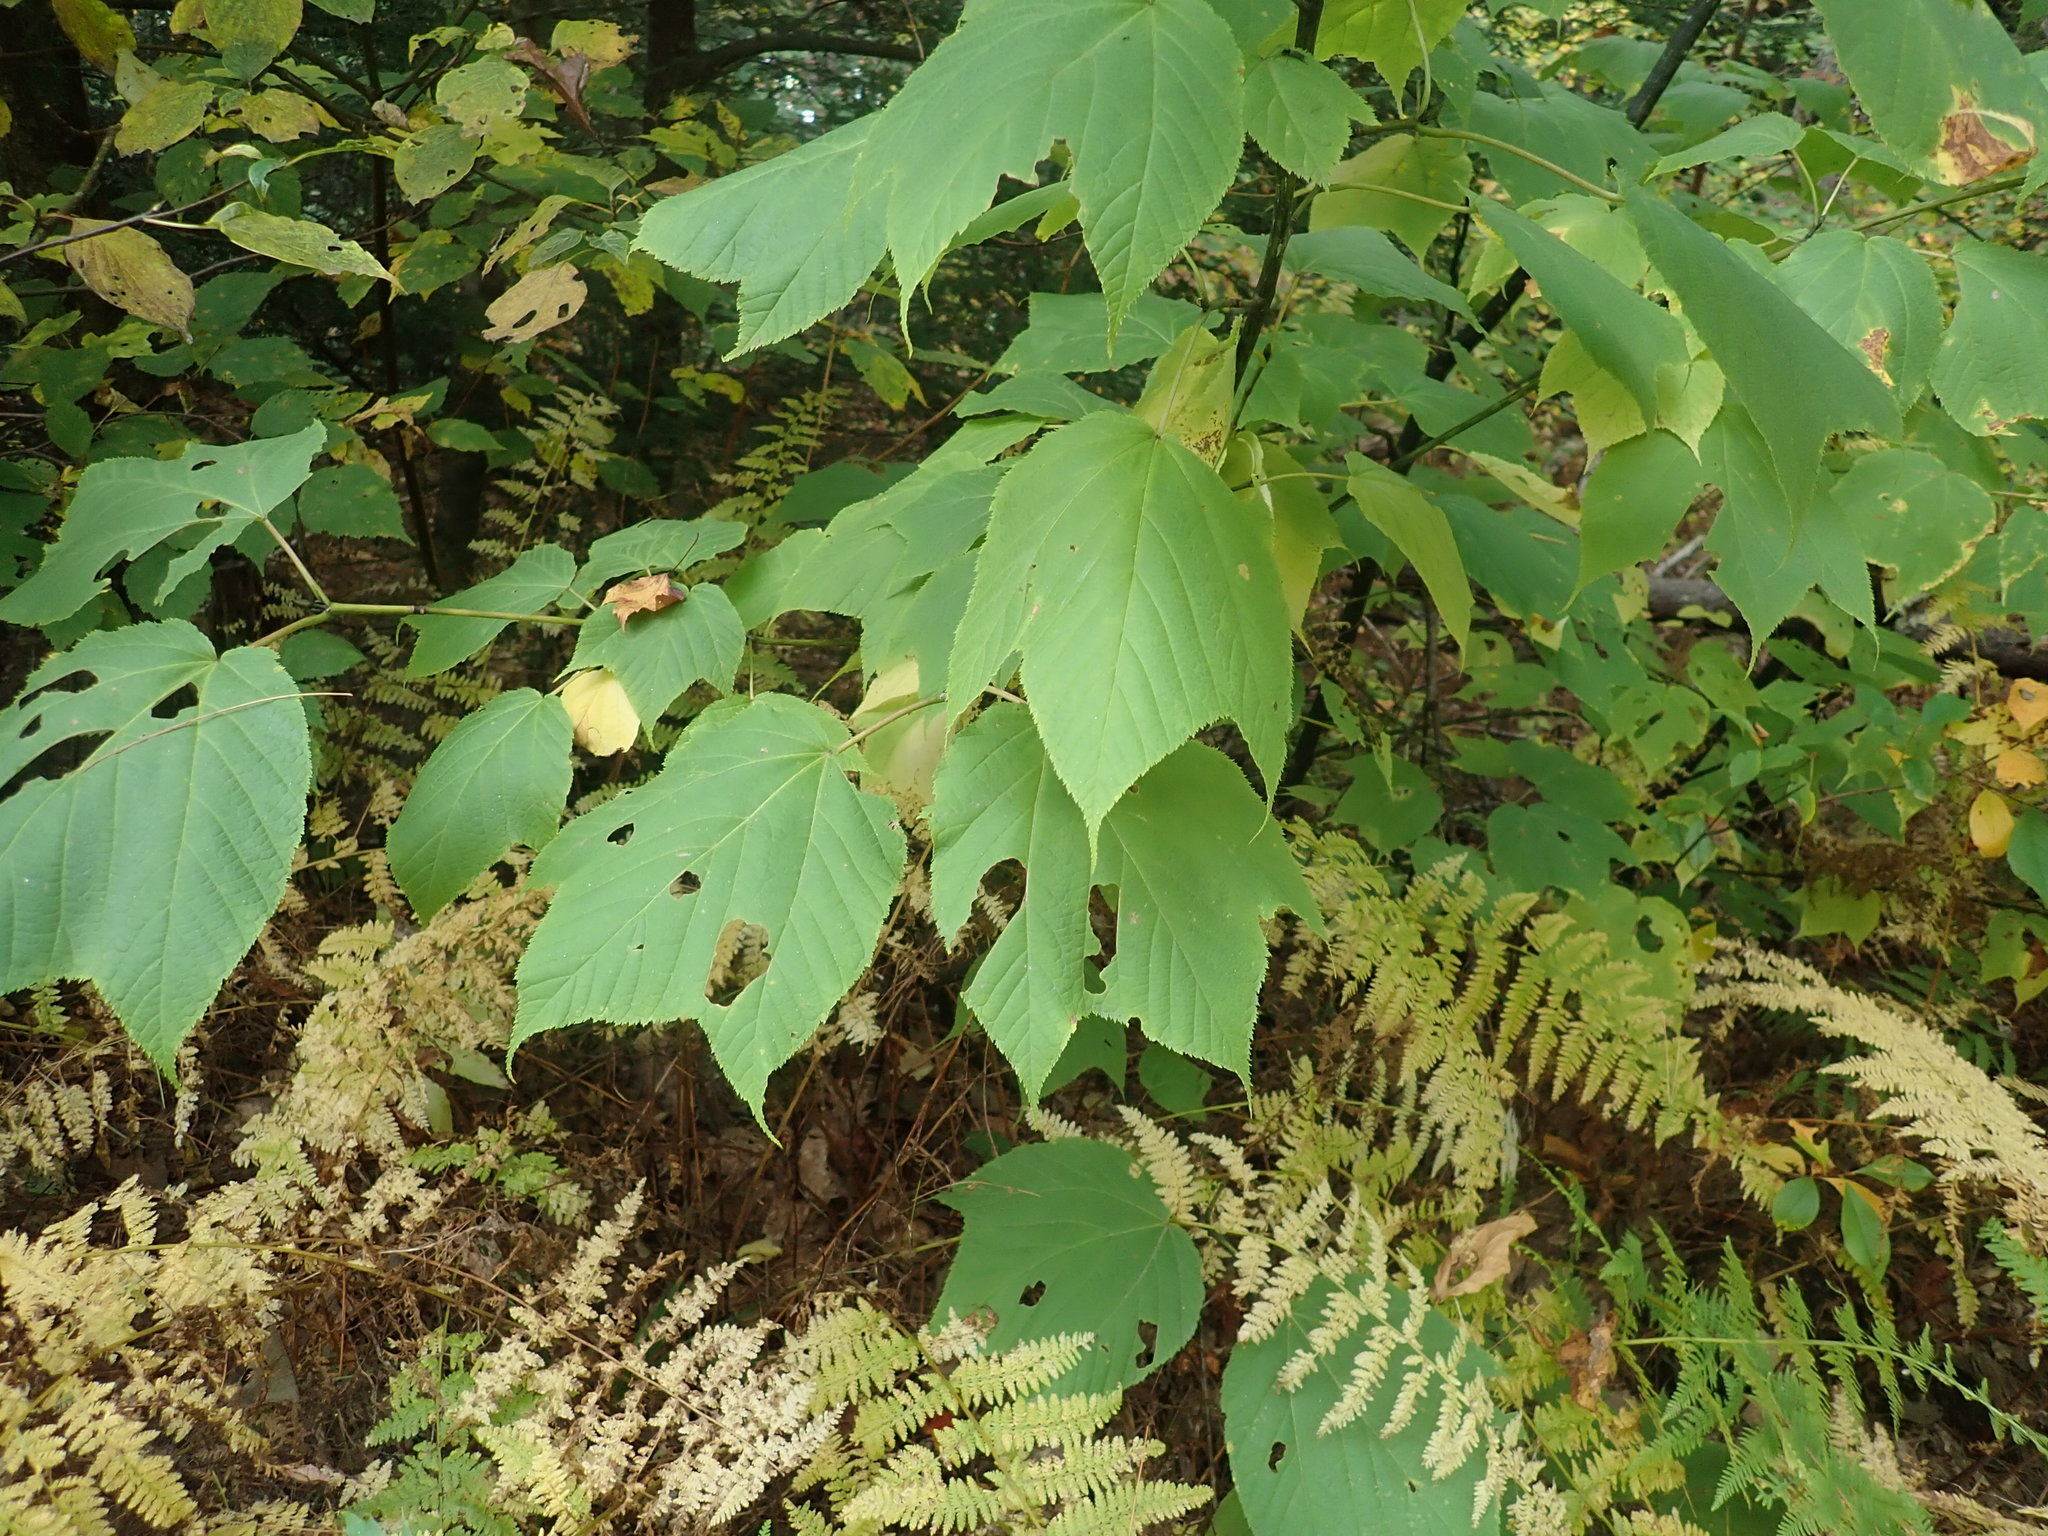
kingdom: Plantae
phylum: Tracheophyta
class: Magnoliopsida
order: Sapindales
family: Sapindaceae
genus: Acer
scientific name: Acer pensylvanicum
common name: Moosewood
